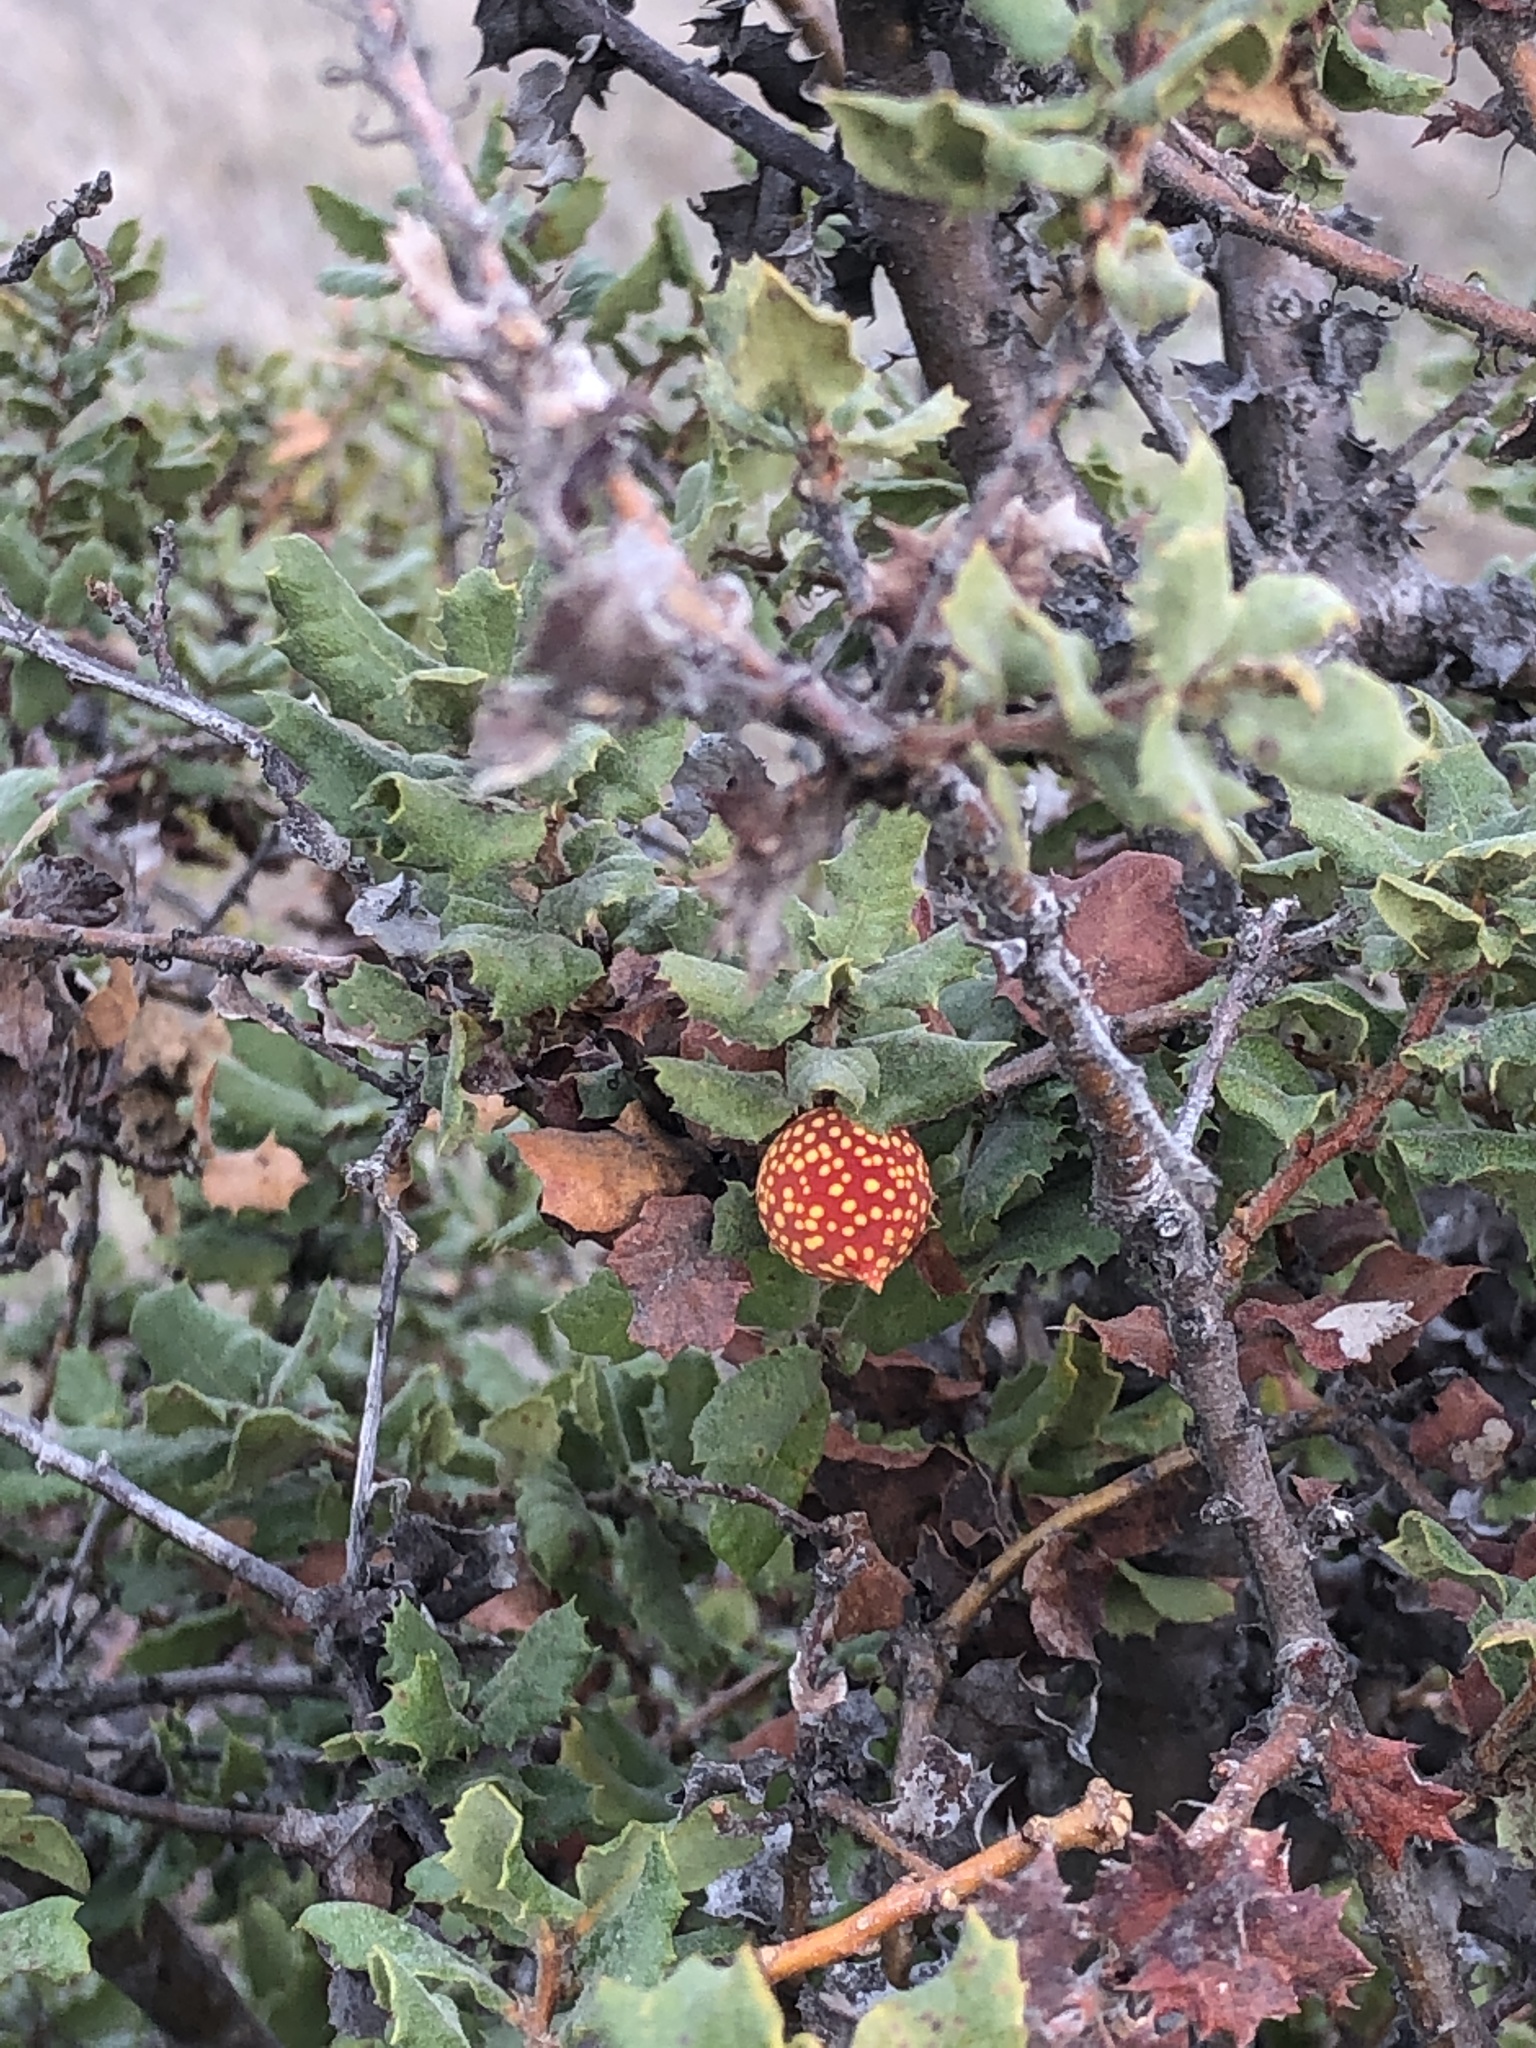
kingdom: Animalia
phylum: Arthropoda
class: Insecta
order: Hymenoptera
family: Cynipidae
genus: Burnettweldia
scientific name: Burnettweldia
